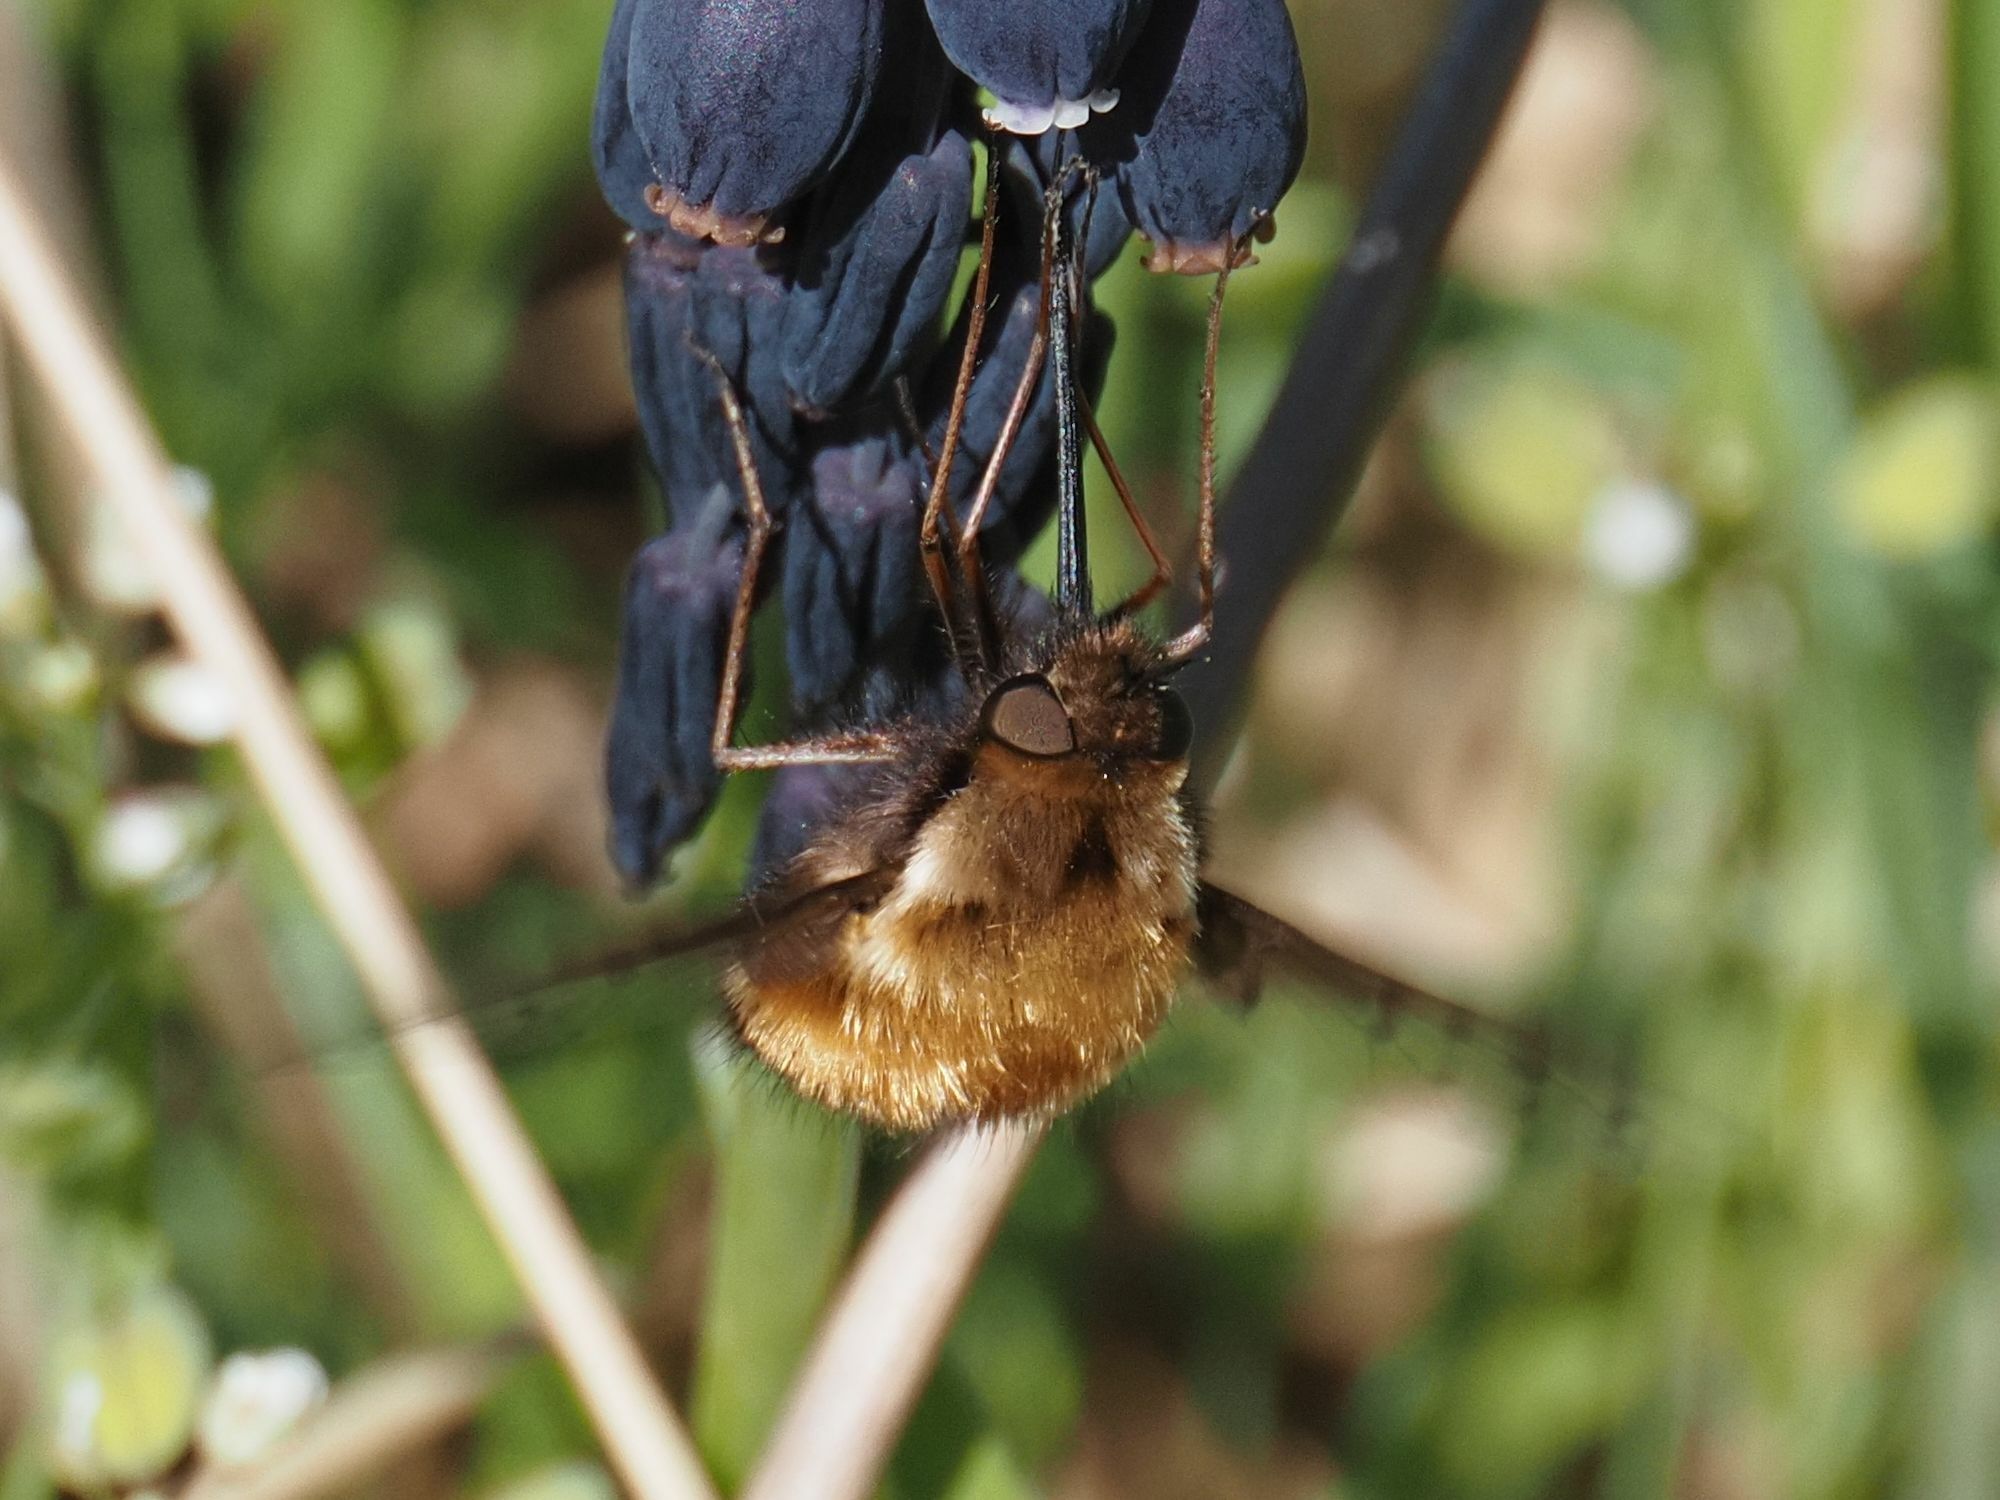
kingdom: Animalia
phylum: Arthropoda
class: Insecta
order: Diptera
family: Bombyliidae
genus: Bombylius
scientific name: Bombylius discolor
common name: Dotted bee-fly
